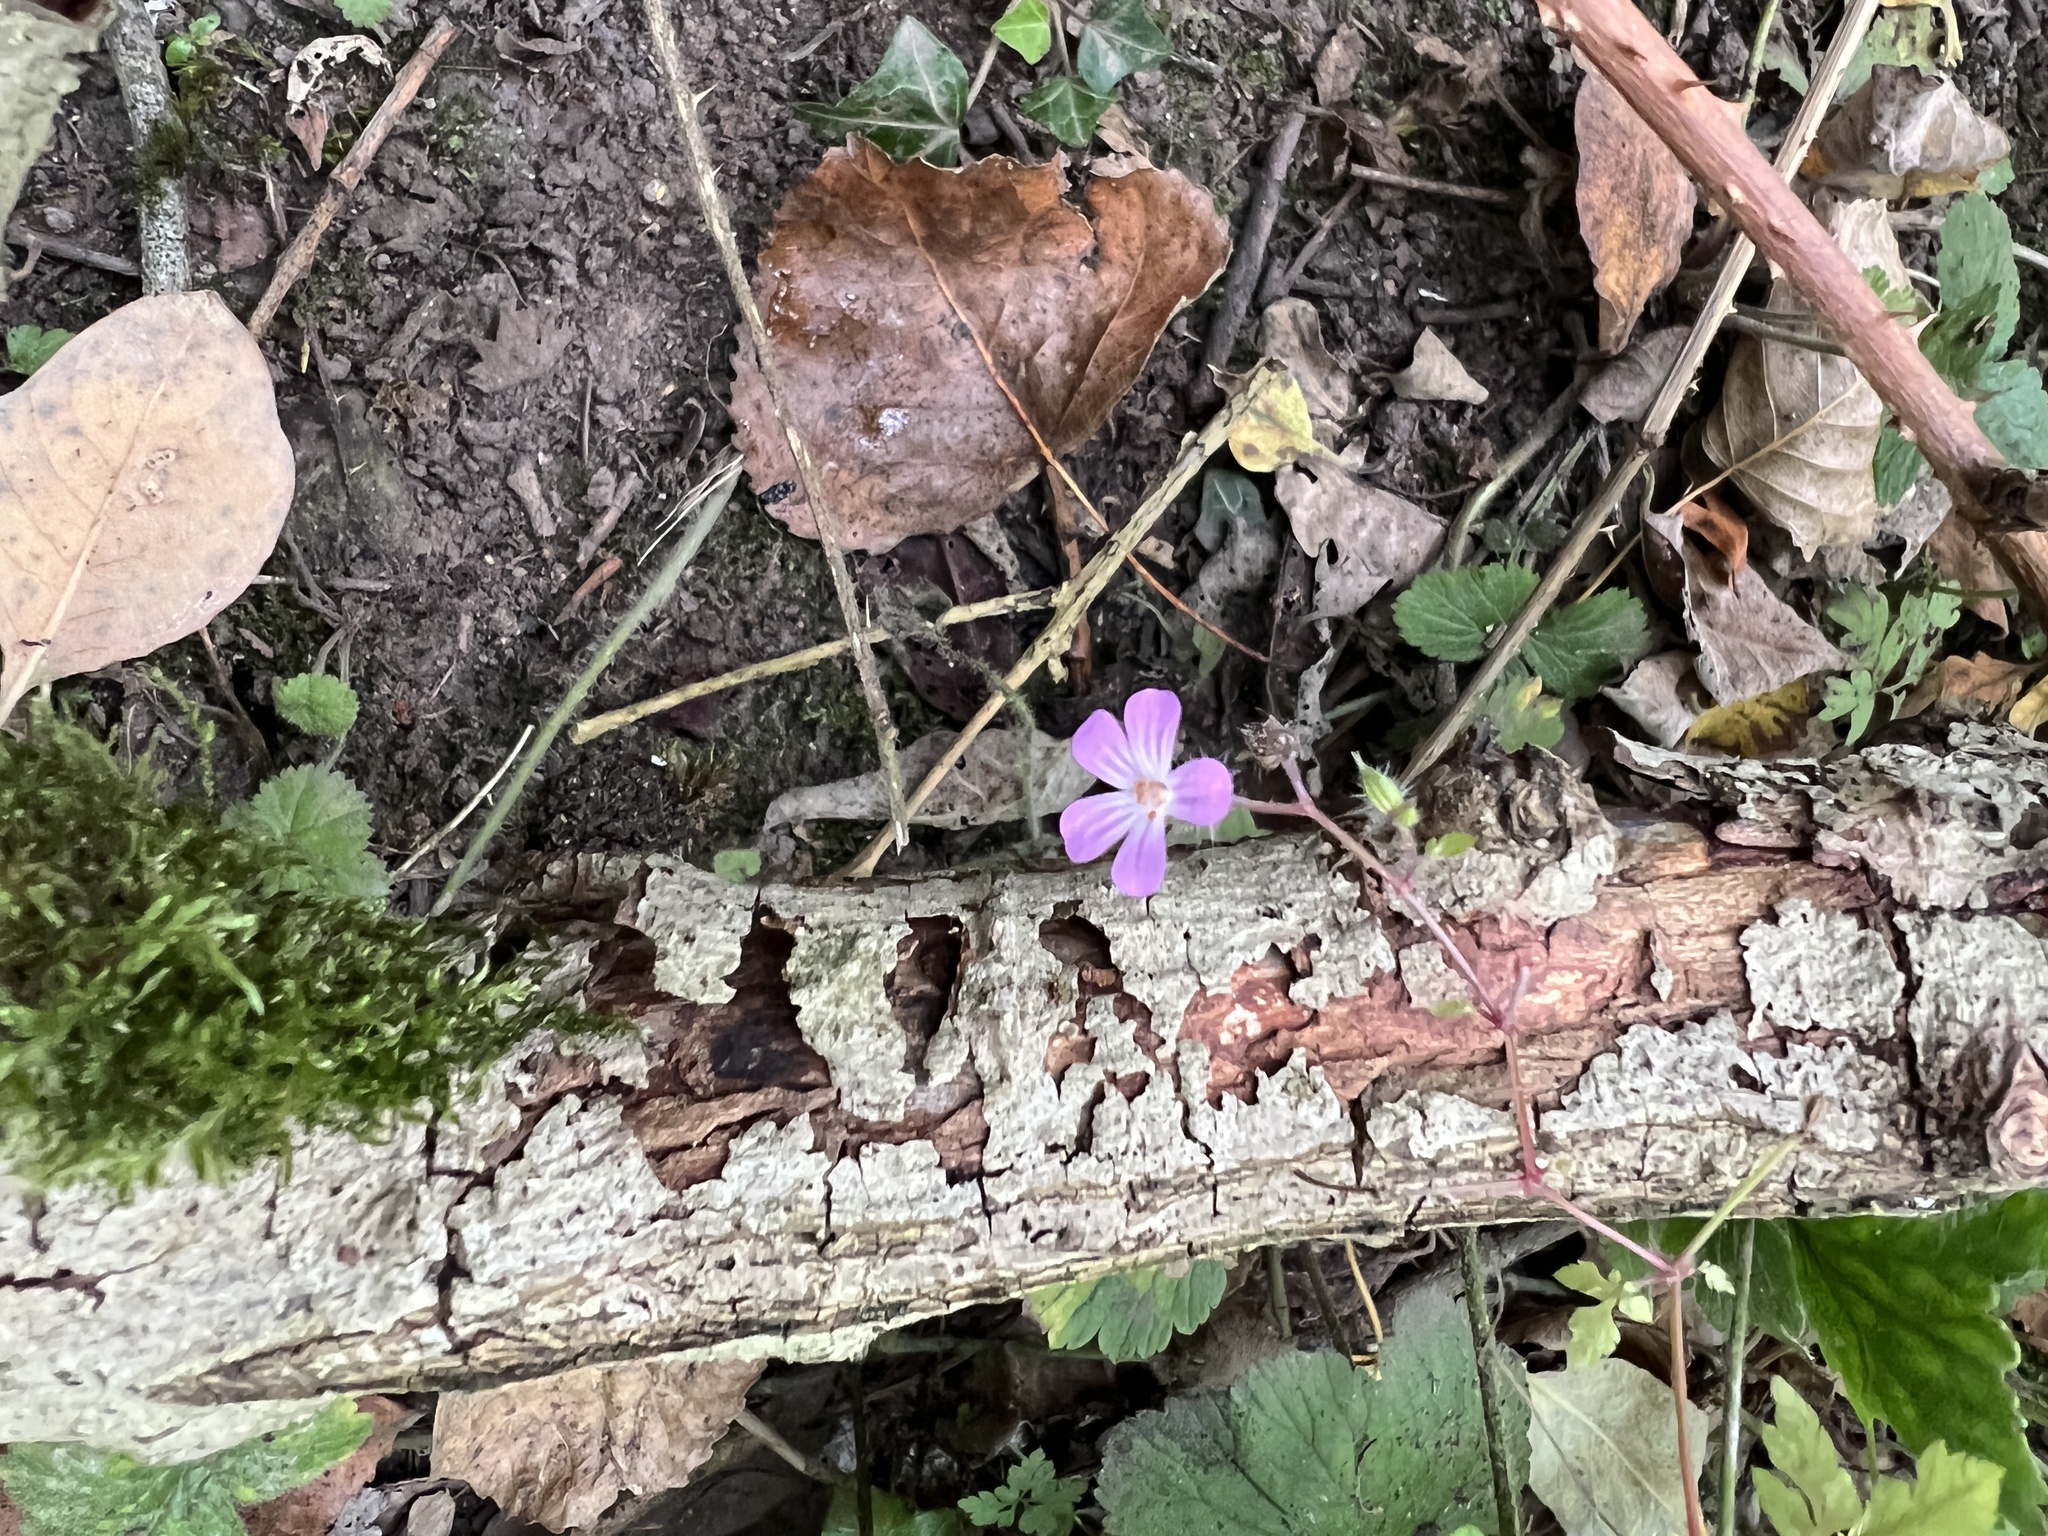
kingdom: Plantae
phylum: Tracheophyta
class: Magnoliopsida
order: Geraniales
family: Geraniaceae
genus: Geranium
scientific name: Geranium robertianum
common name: Herb-robert
